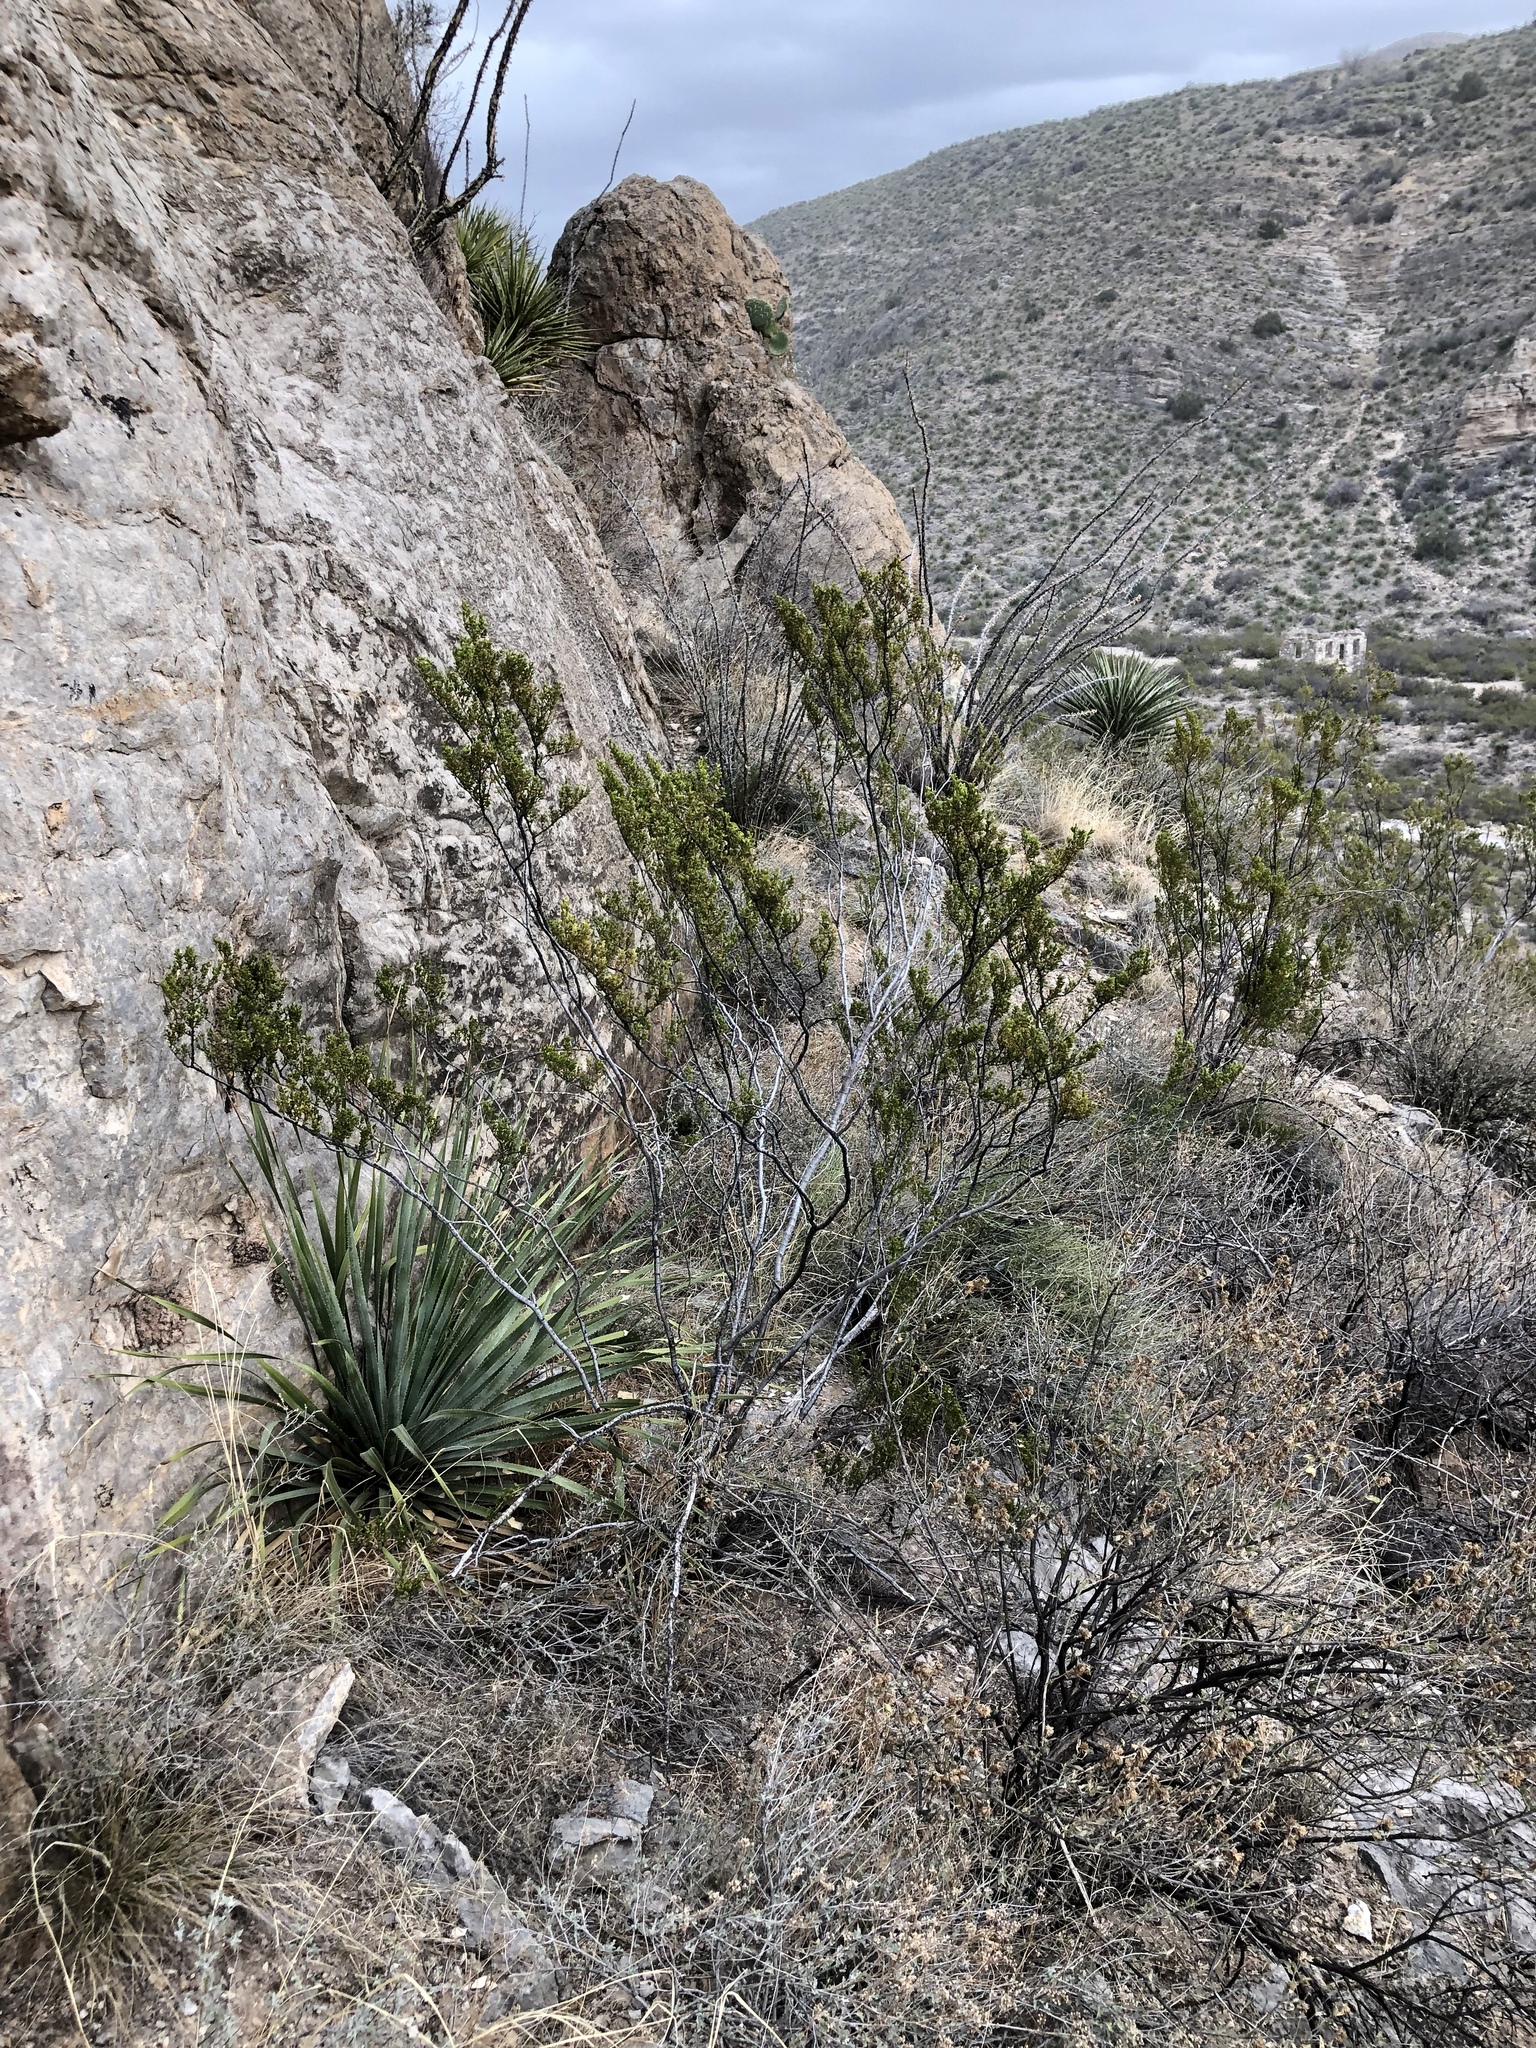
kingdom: Plantae
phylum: Tracheophyta
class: Magnoliopsida
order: Zygophyllales
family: Zygophyllaceae
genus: Larrea
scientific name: Larrea tridentata
